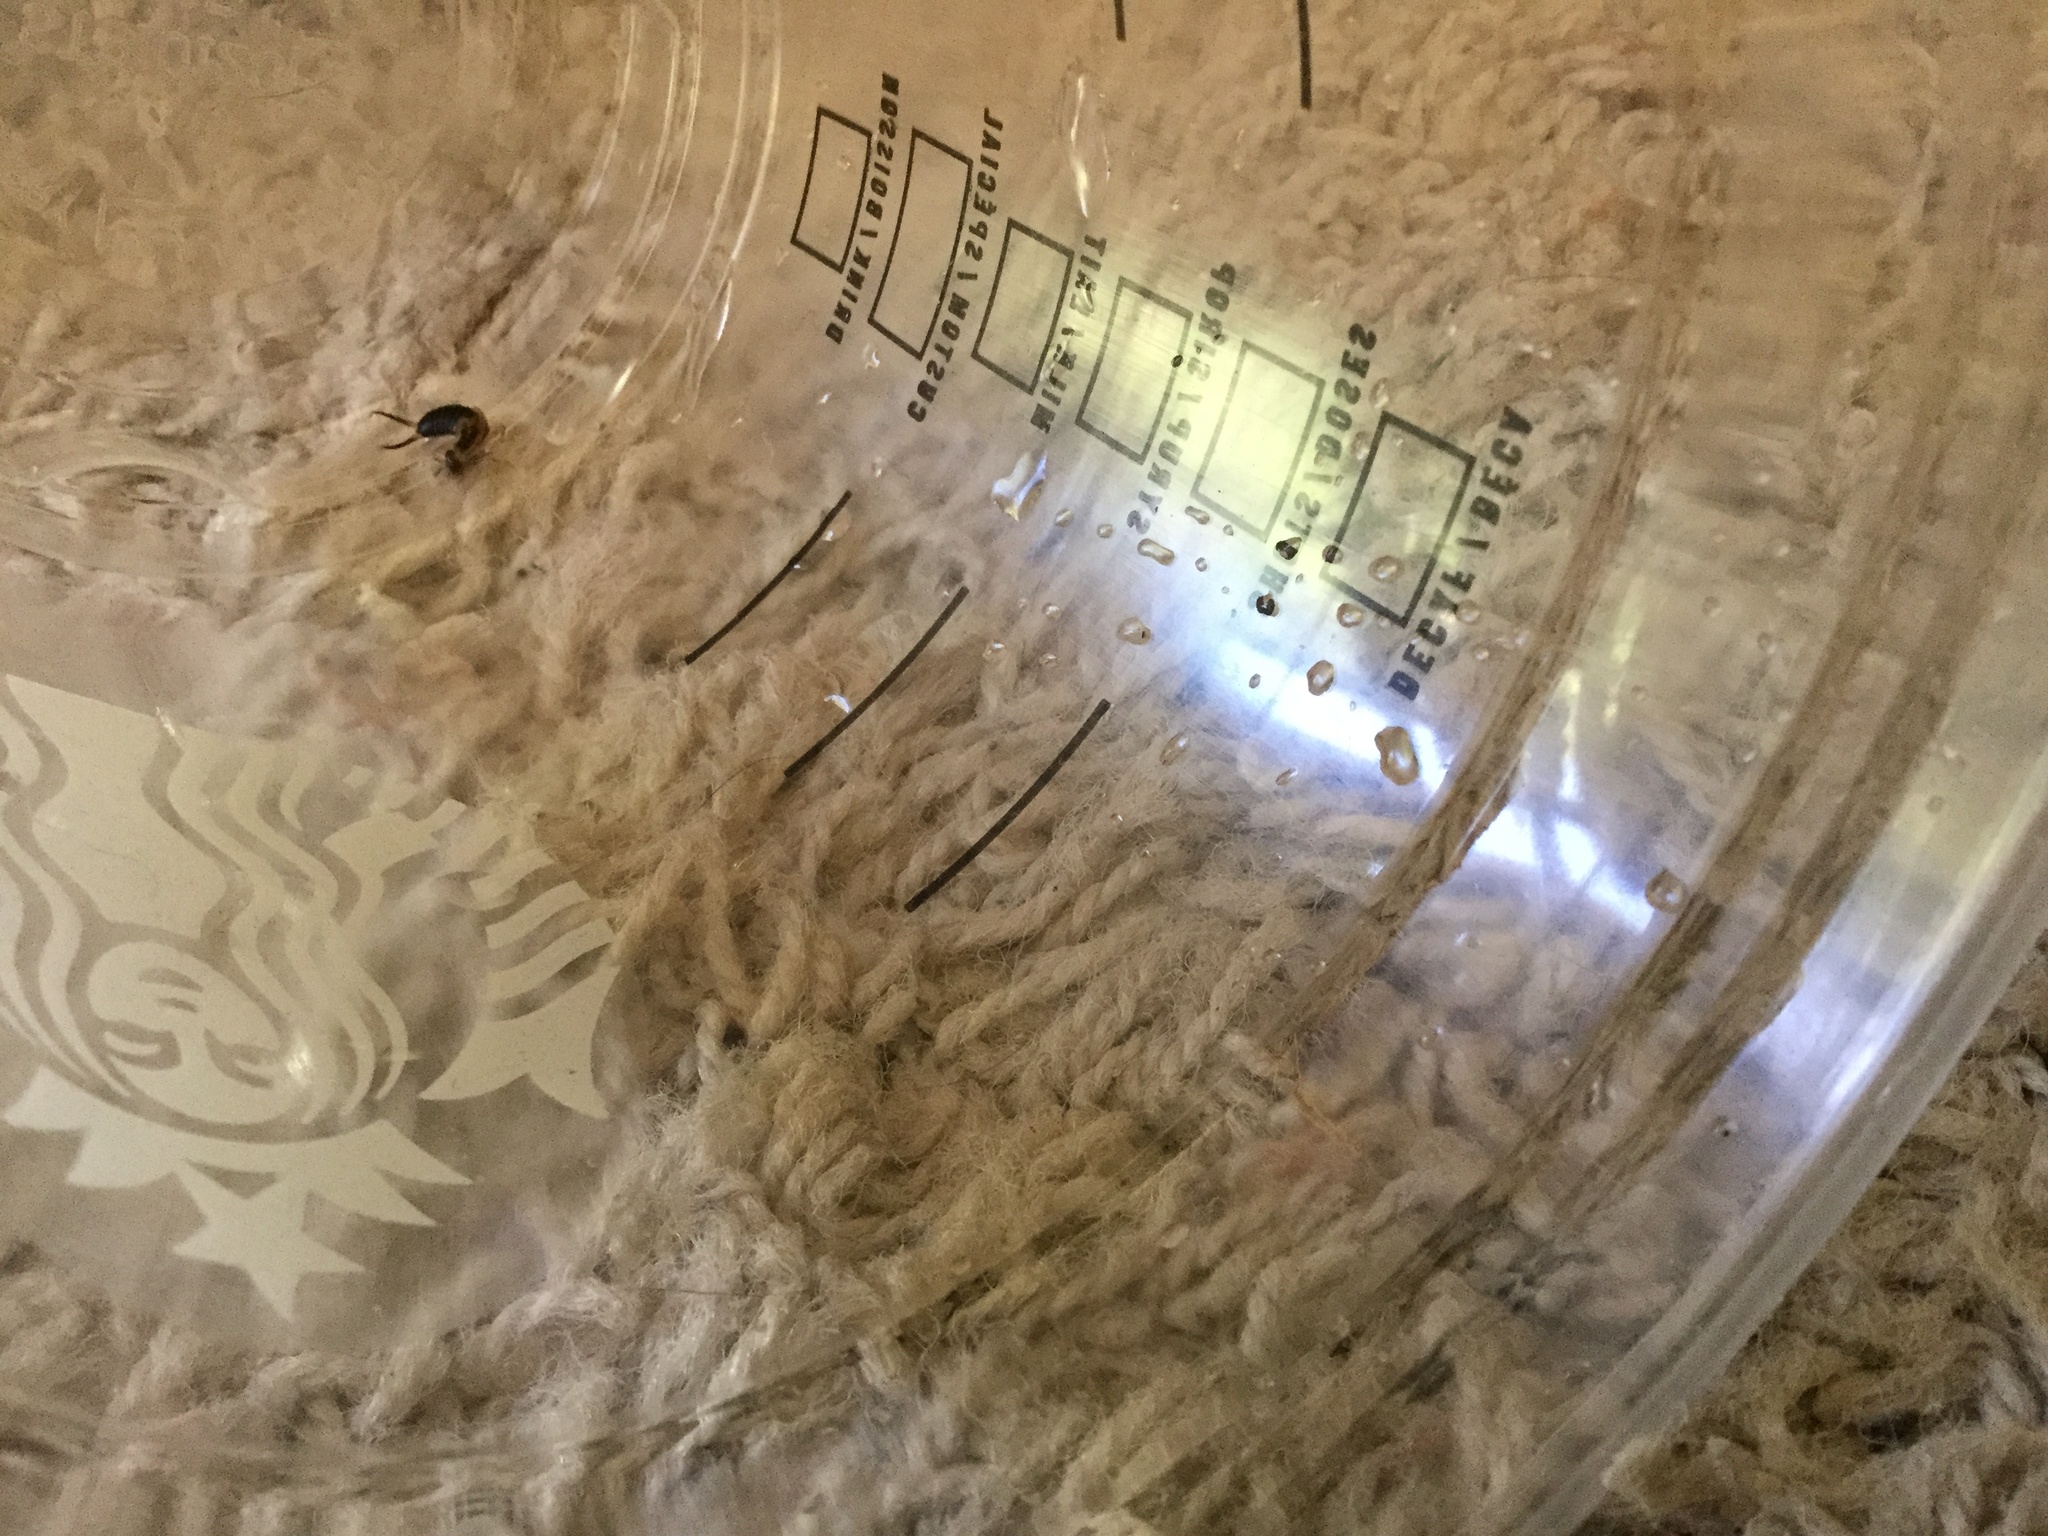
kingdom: Animalia
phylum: Arthropoda
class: Insecta
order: Dermaptera
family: Forficulidae
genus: Forficula
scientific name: Forficula
